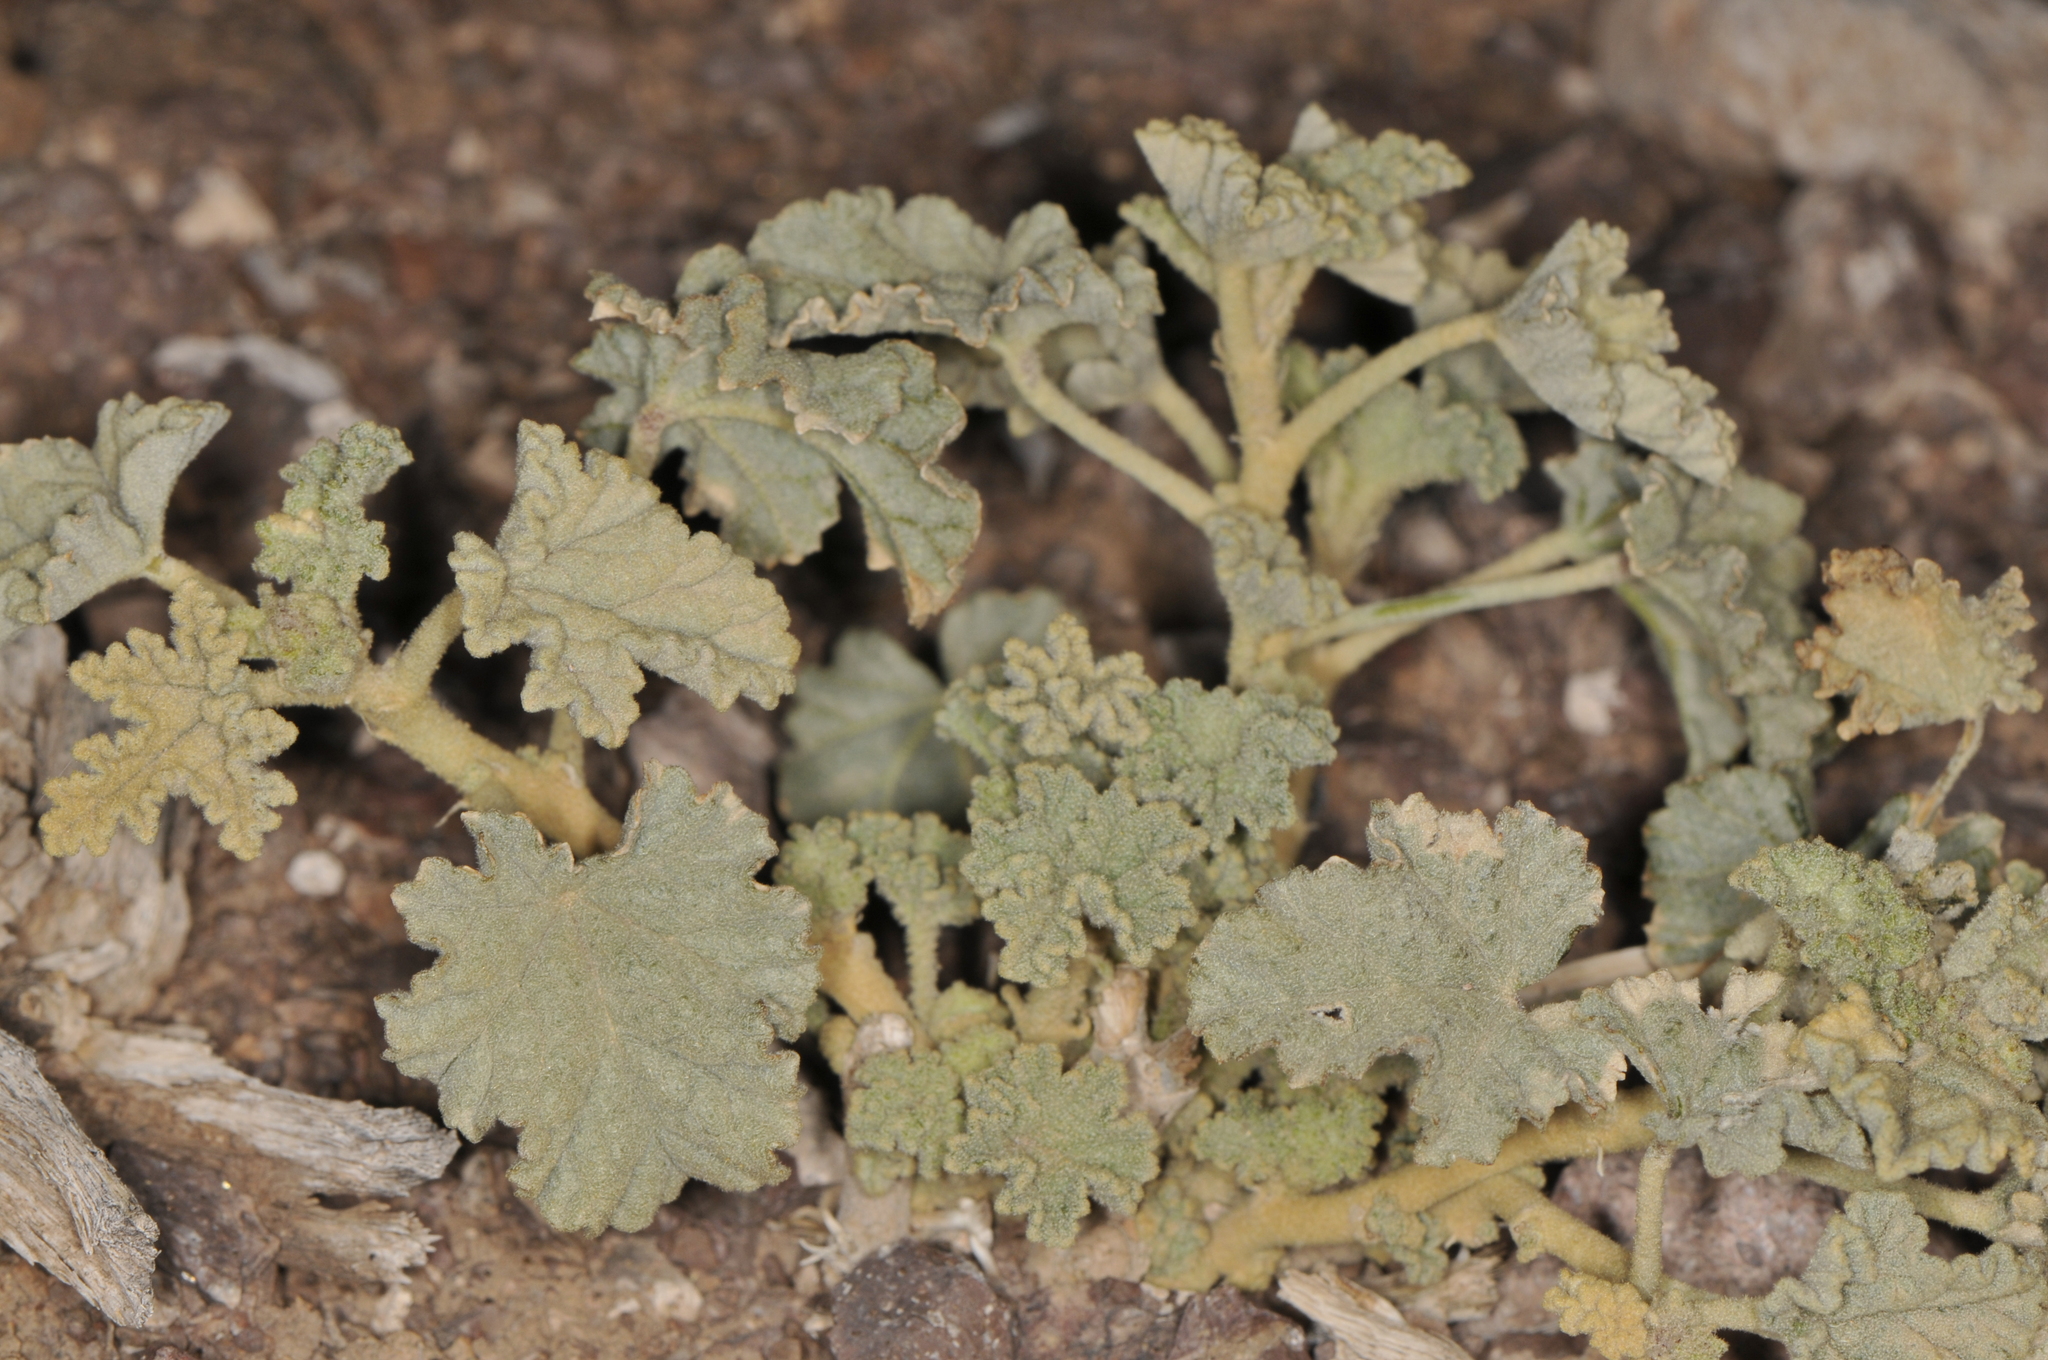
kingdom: Plantae
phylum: Tracheophyta
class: Magnoliopsida
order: Malvales
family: Malvaceae
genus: Sphaeralcea
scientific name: Sphaeralcea ambigua
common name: Apricot globe-mallow
